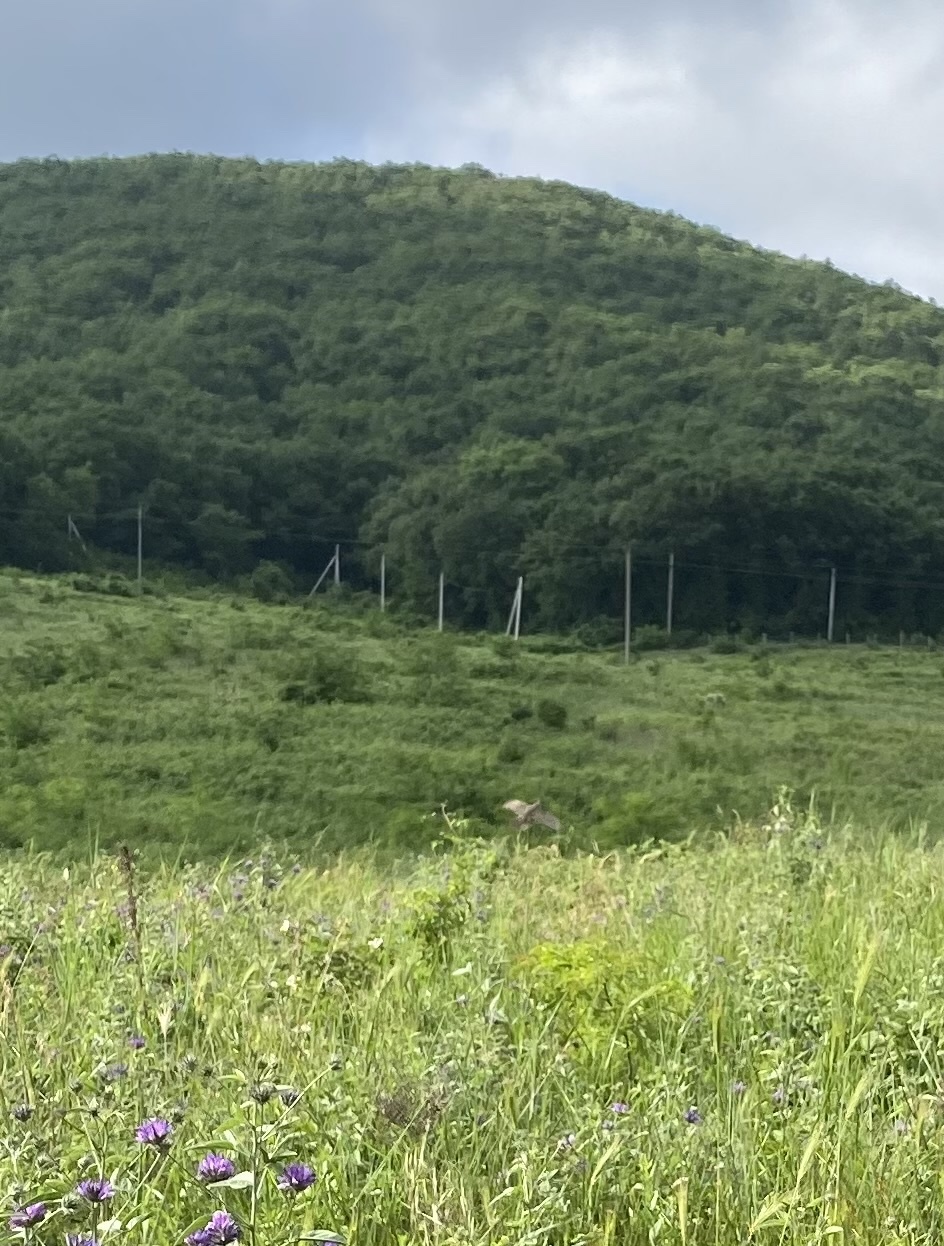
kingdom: Animalia
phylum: Chordata
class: Aves
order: Galliformes
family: Phasianidae
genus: Phasianus
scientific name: Phasianus colchicus
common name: Common pheasant
